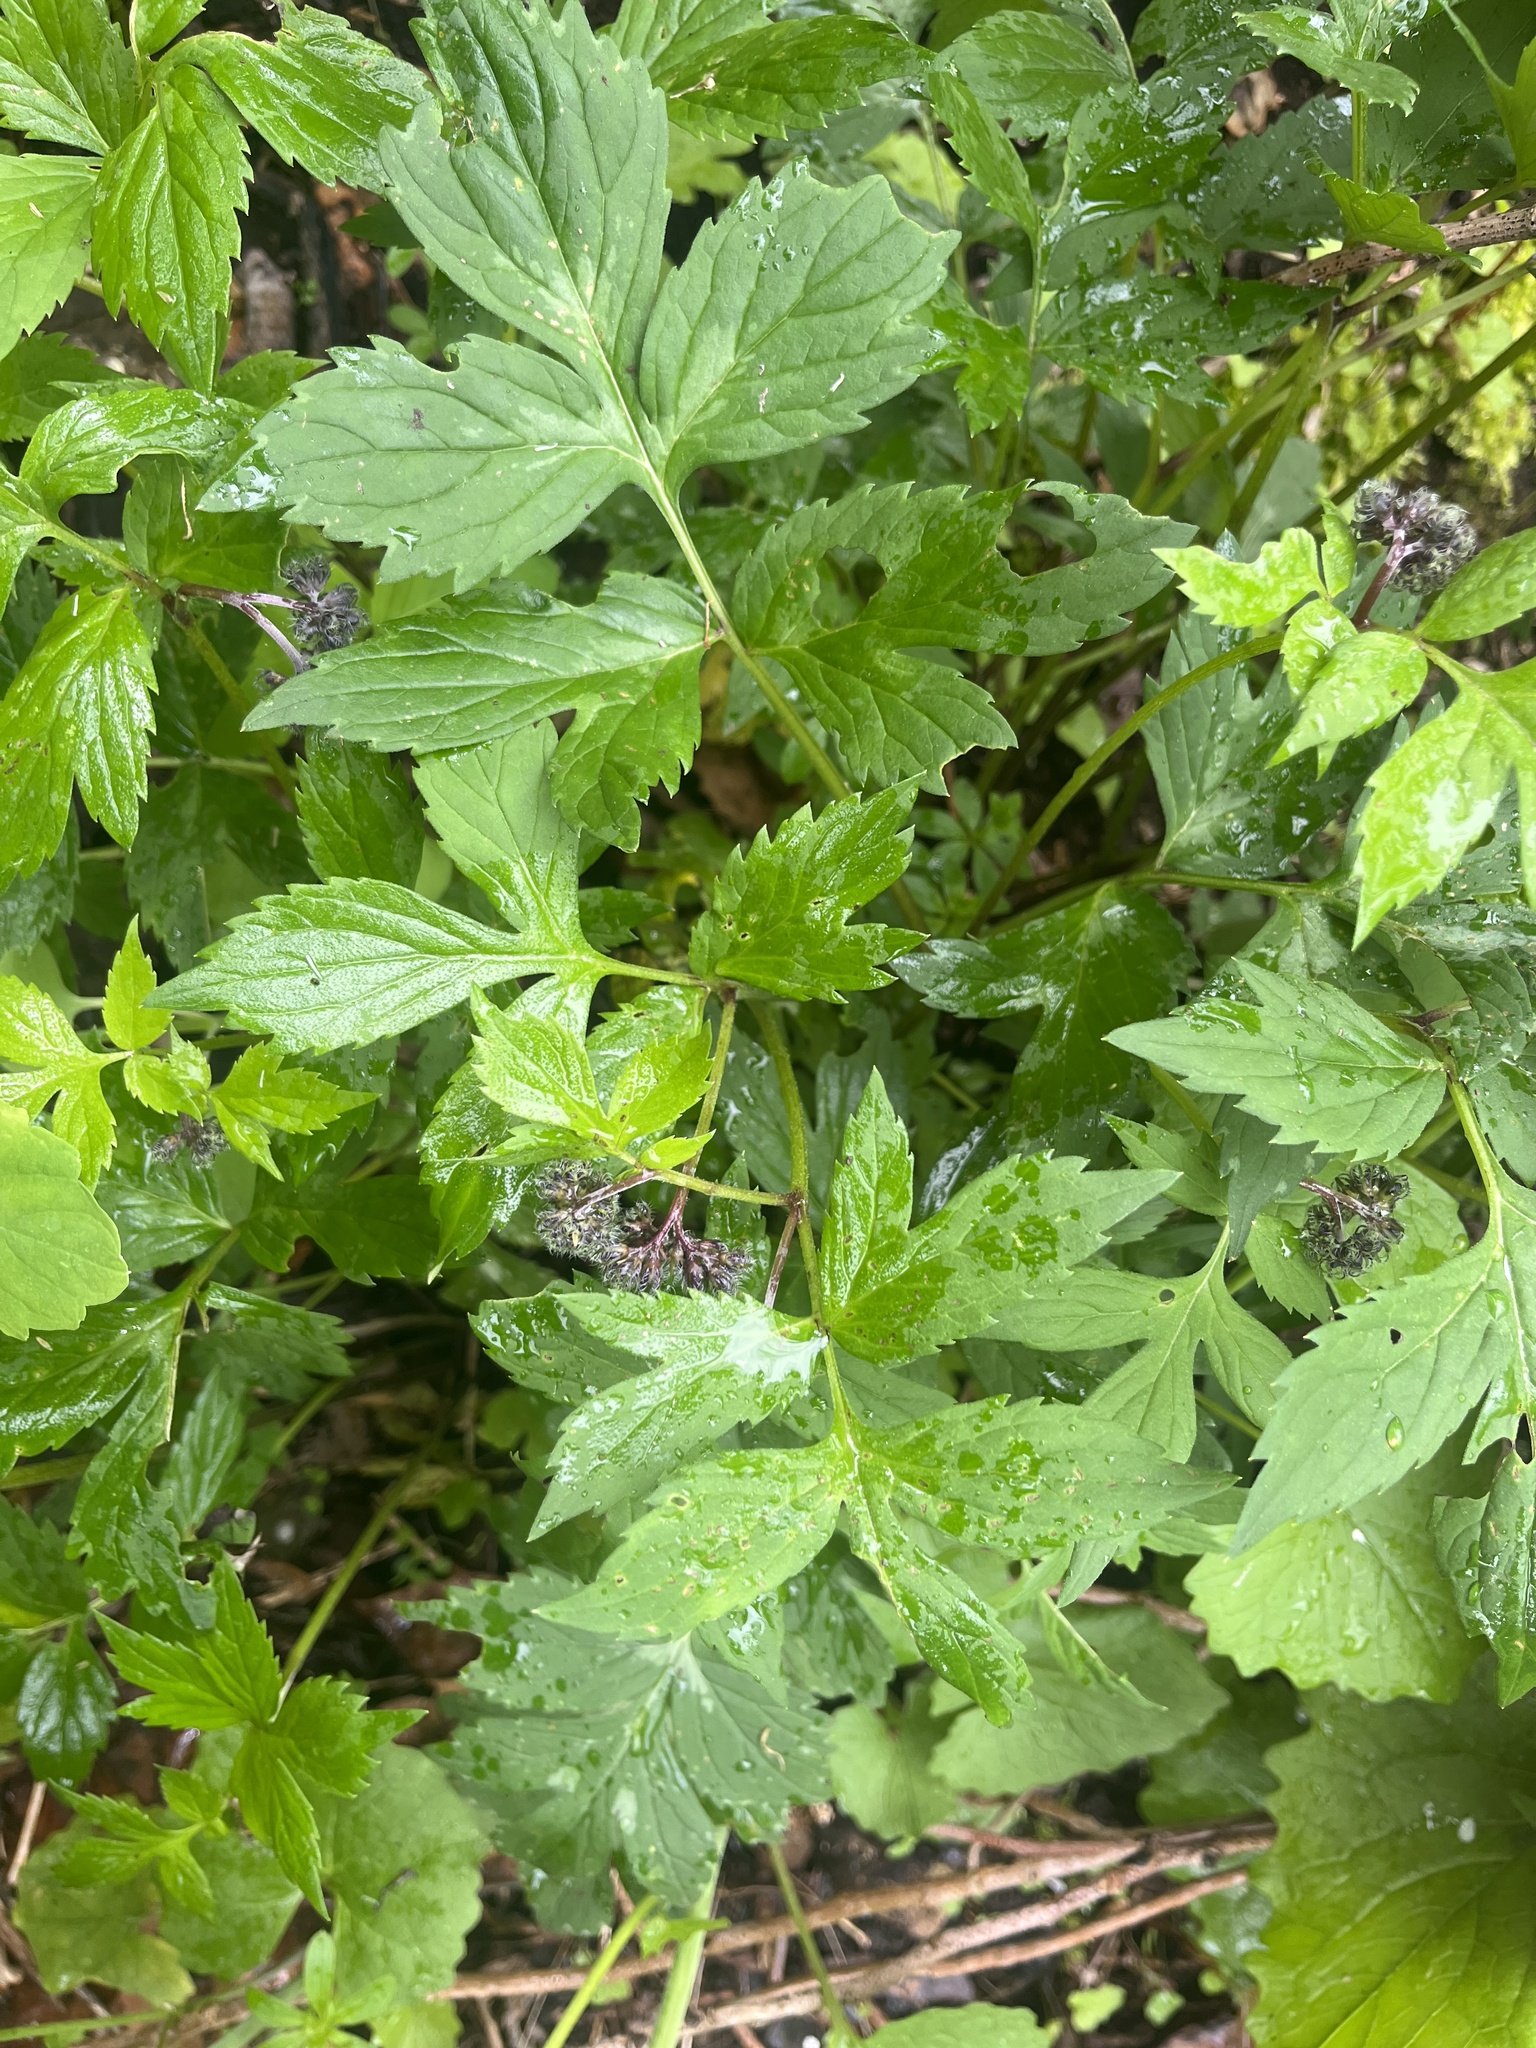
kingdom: Plantae
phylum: Tracheophyta
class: Magnoliopsida
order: Boraginales
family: Hydrophyllaceae
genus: Hydrophyllum
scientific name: Hydrophyllum virginianum
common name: Virginia waterleaf
